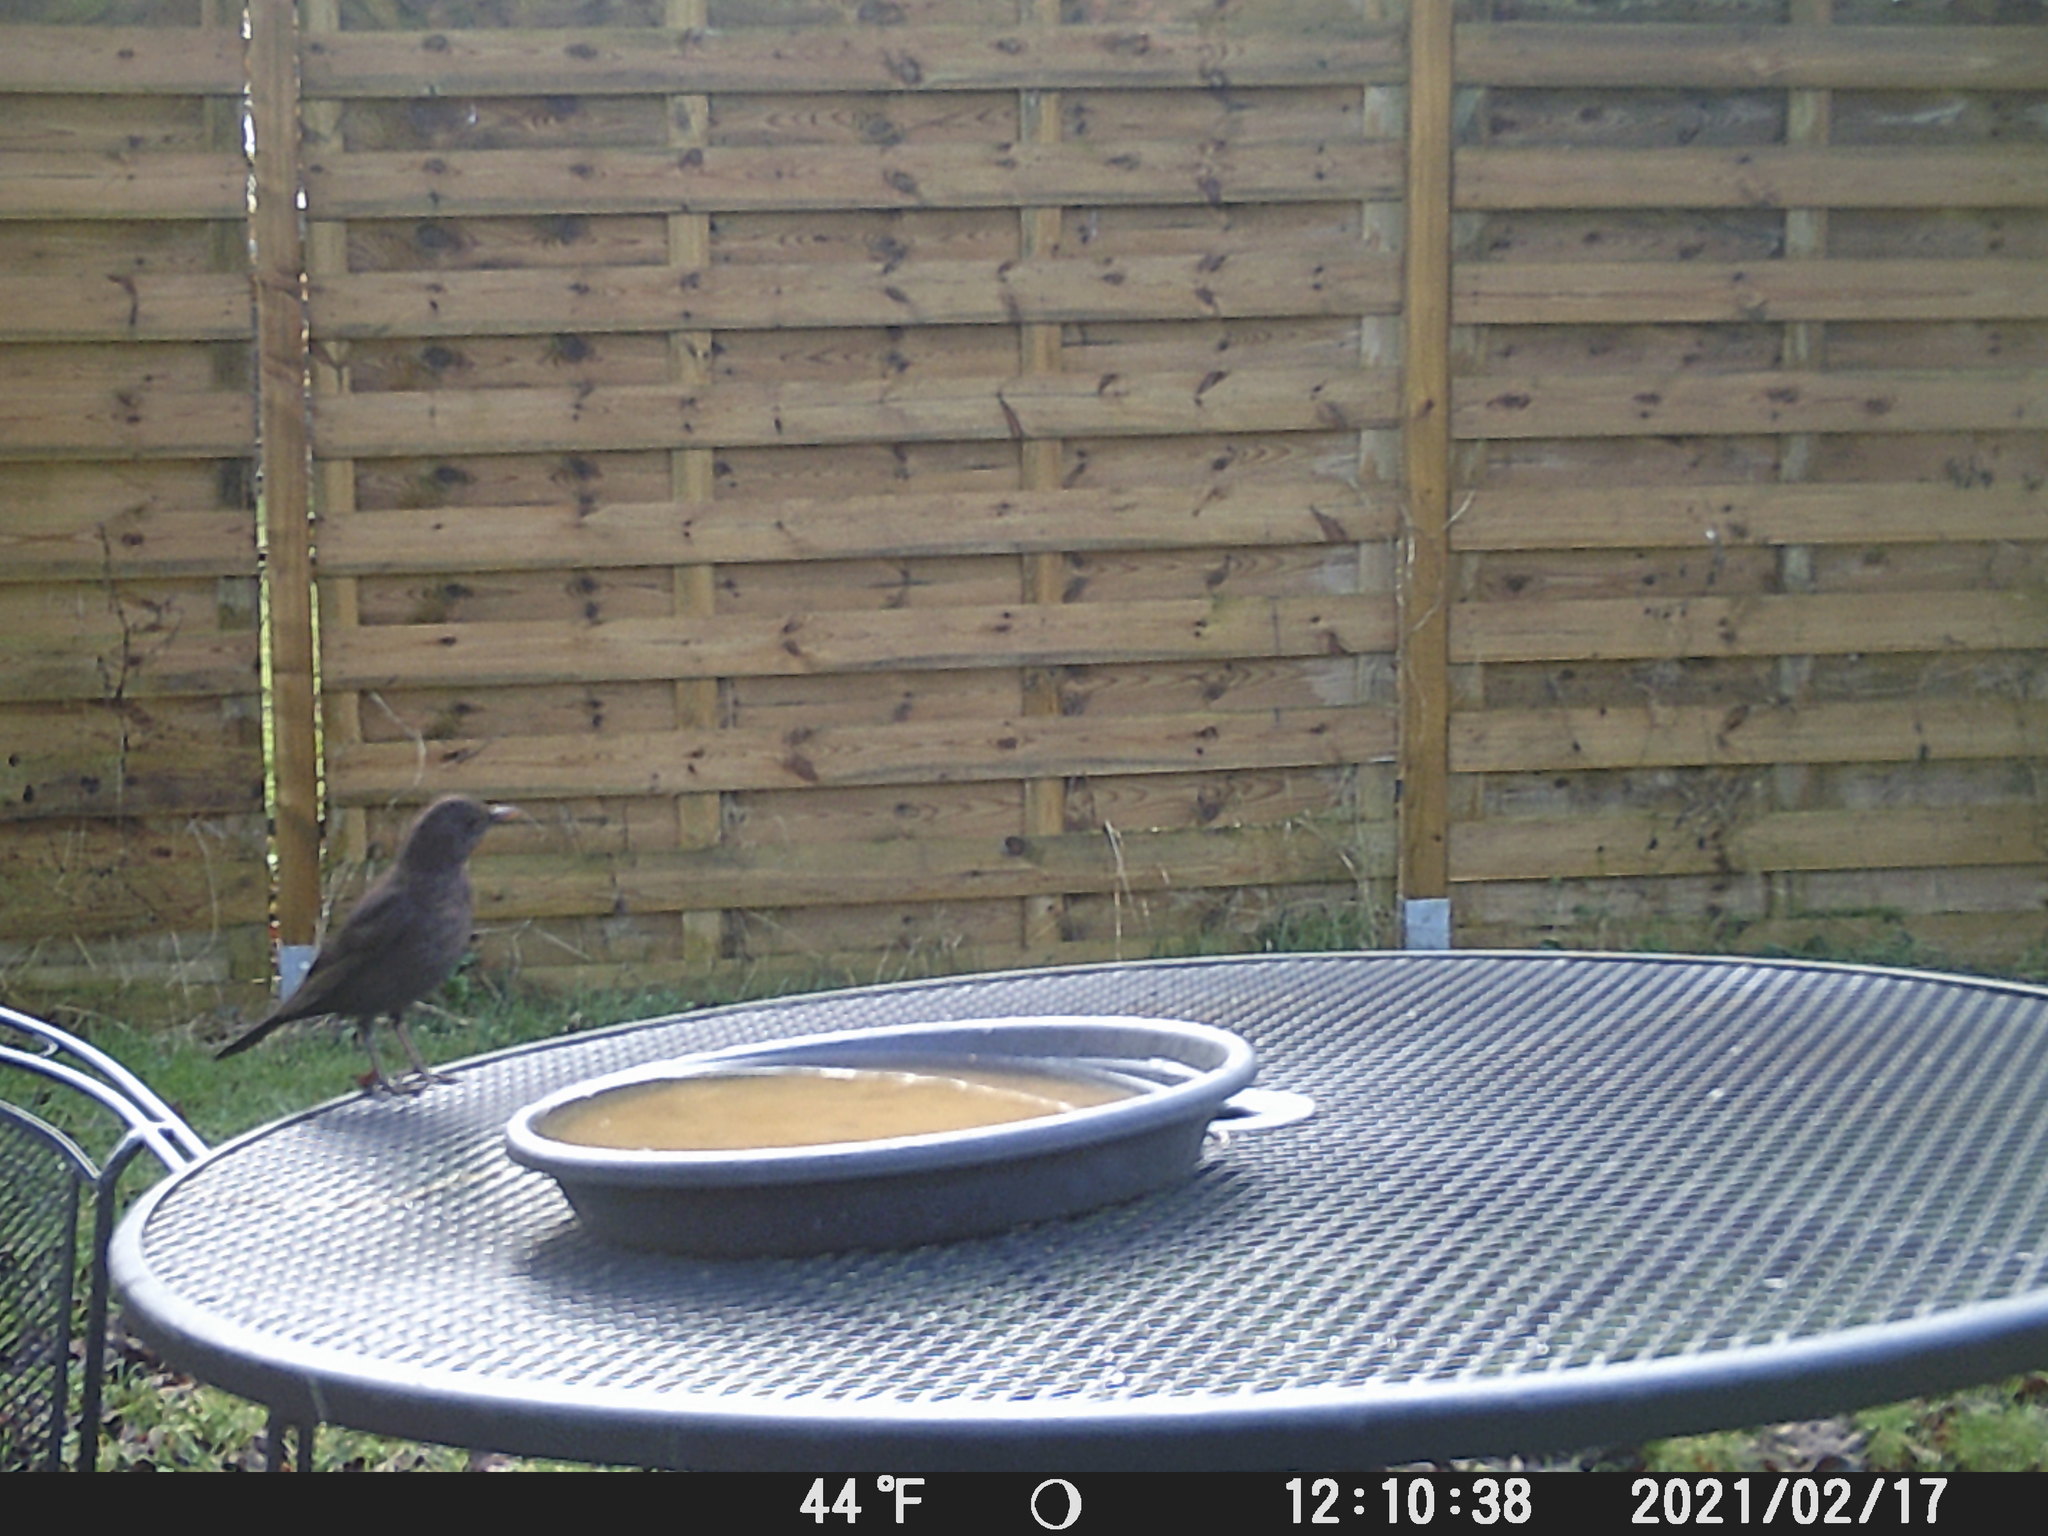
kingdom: Animalia
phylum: Chordata
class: Aves
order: Passeriformes
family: Turdidae
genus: Turdus
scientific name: Turdus merula
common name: Common blackbird
